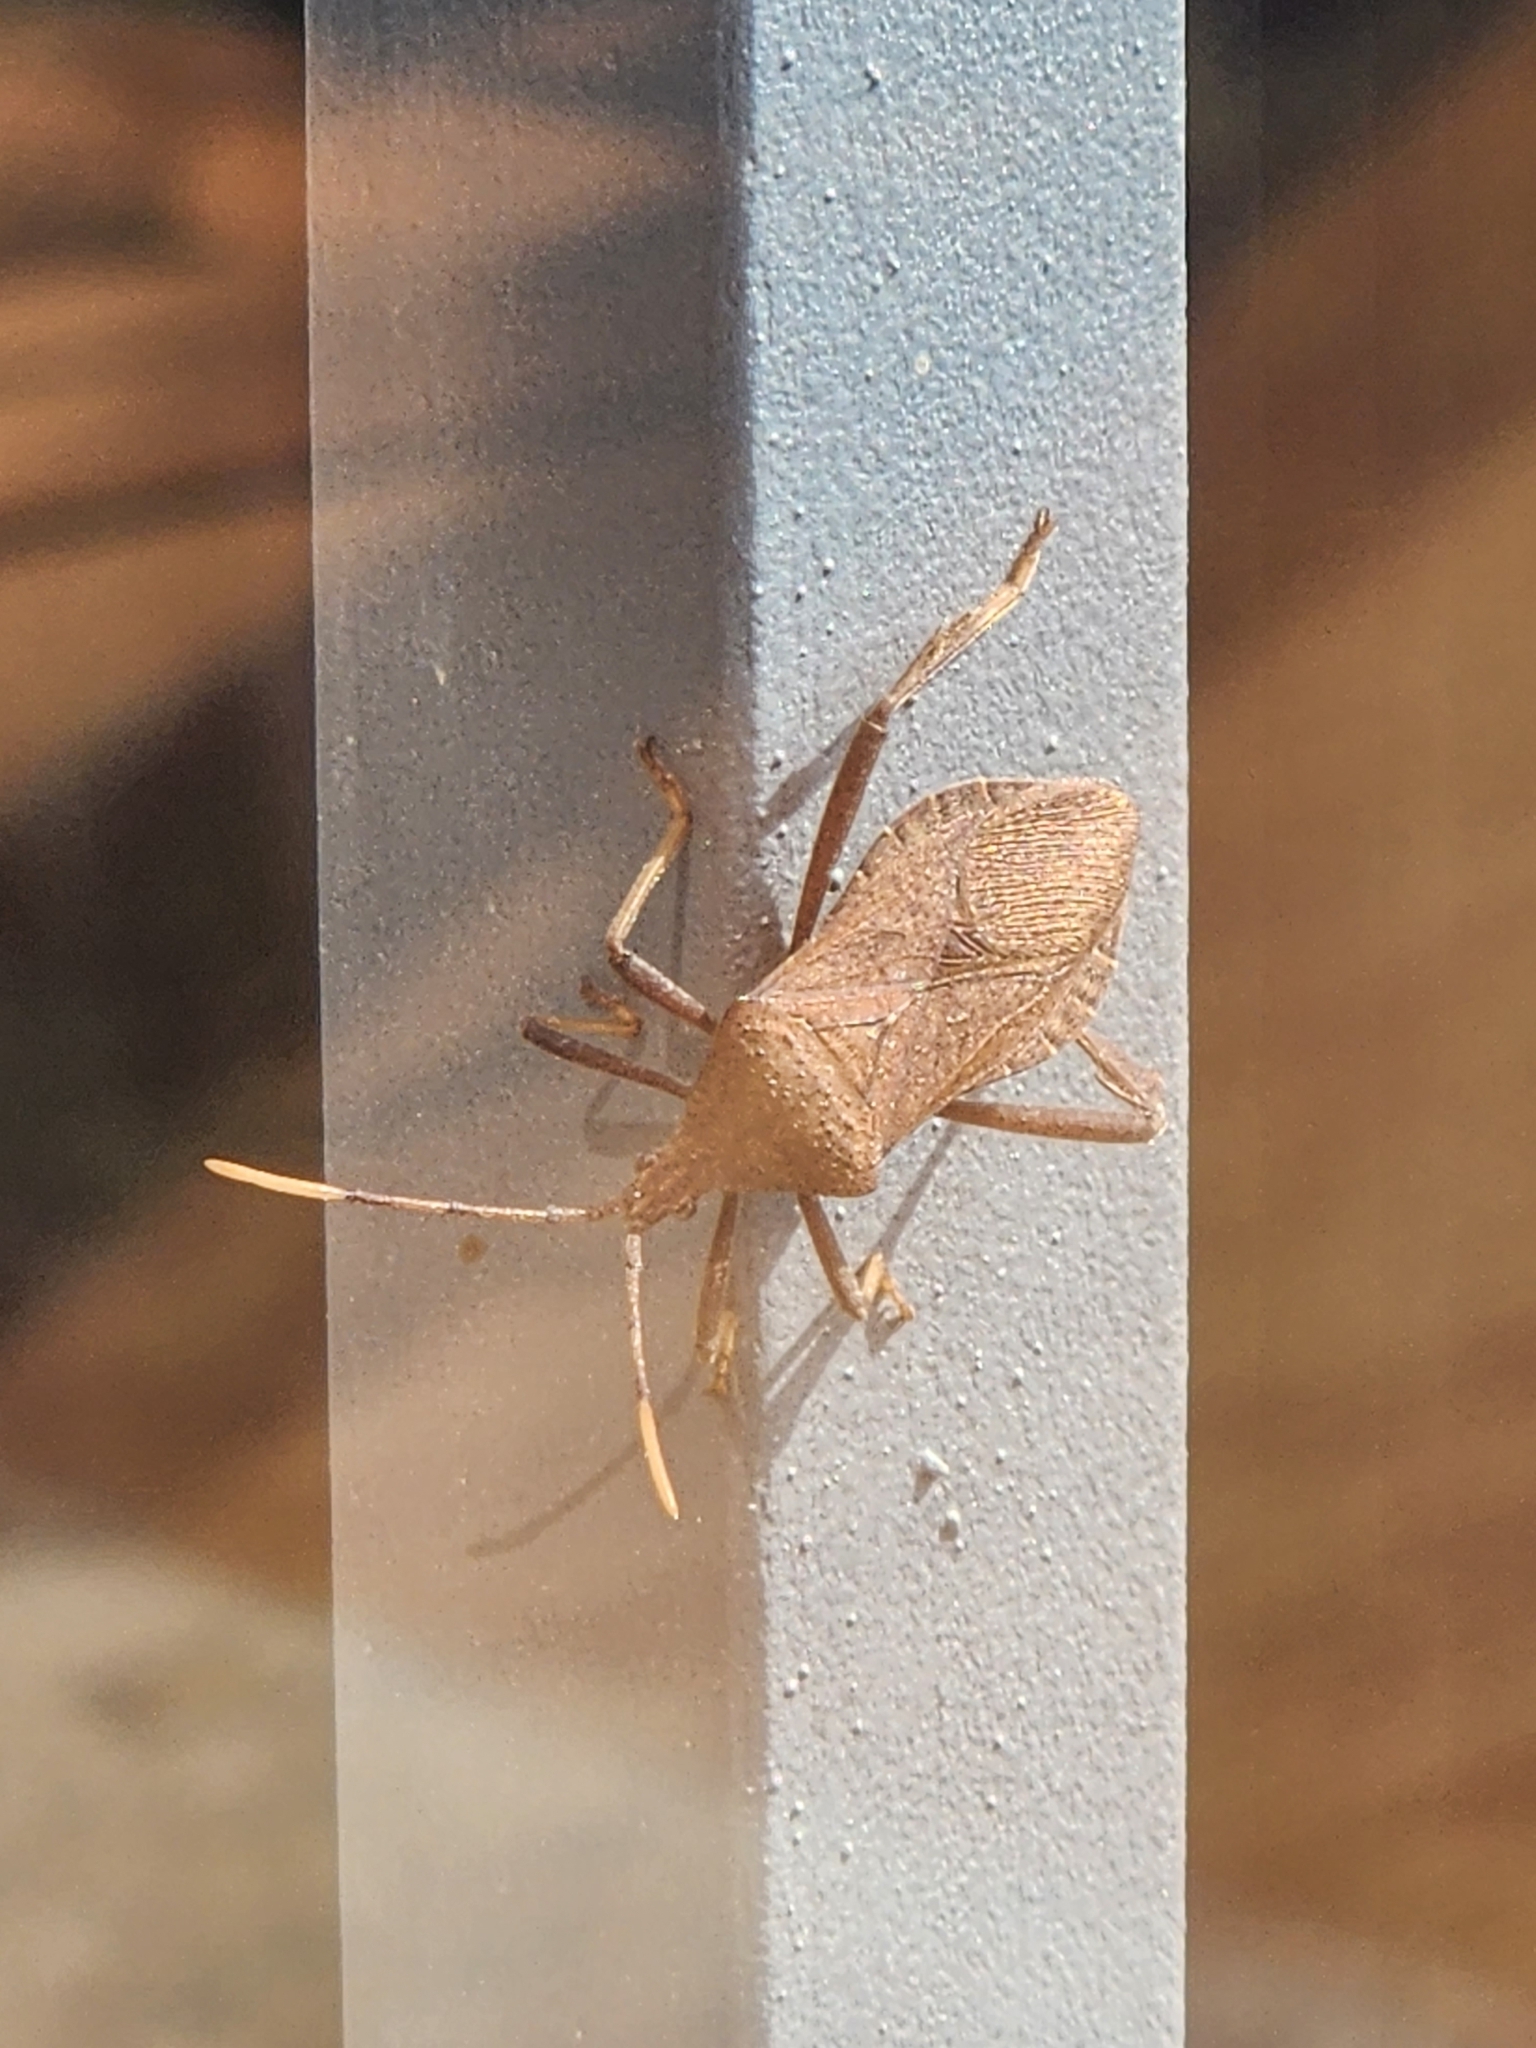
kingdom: Animalia
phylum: Arthropoda
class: Insecta
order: Hemiptera
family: Coreidae
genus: Acanthocephala
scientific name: Acanthocephala terminalis
